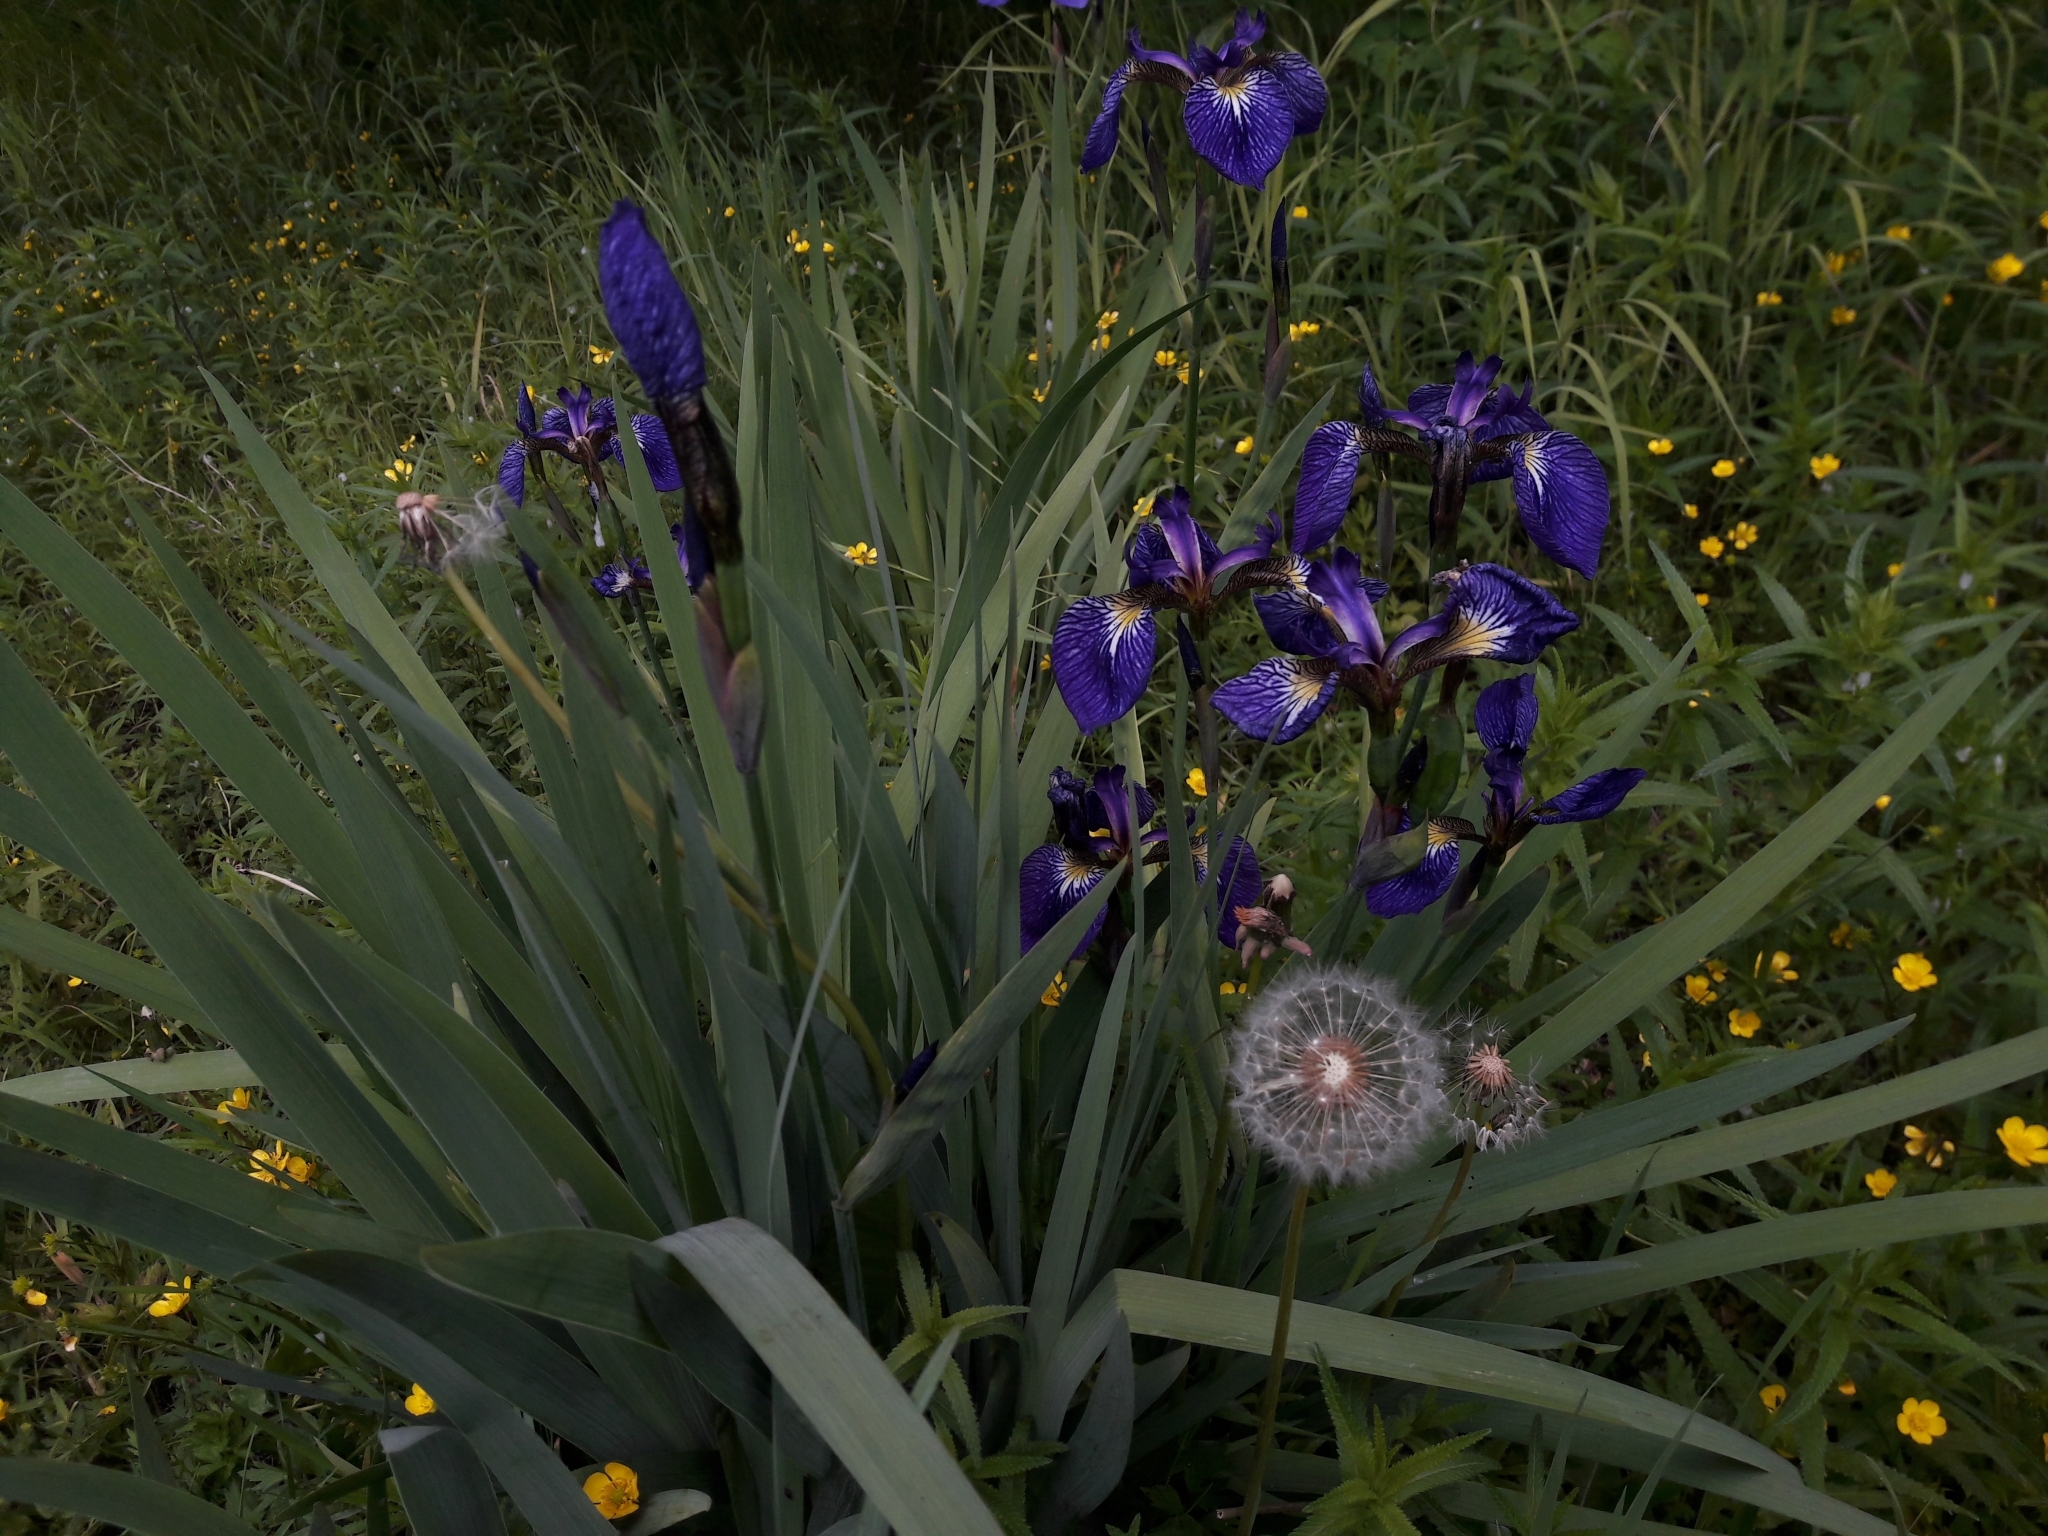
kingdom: Plantae
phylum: Tracheophyta
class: Liliopsida
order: Asparagales
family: Iridaceae
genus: Iris
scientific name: Iris setosa
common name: Arctic blue flag
